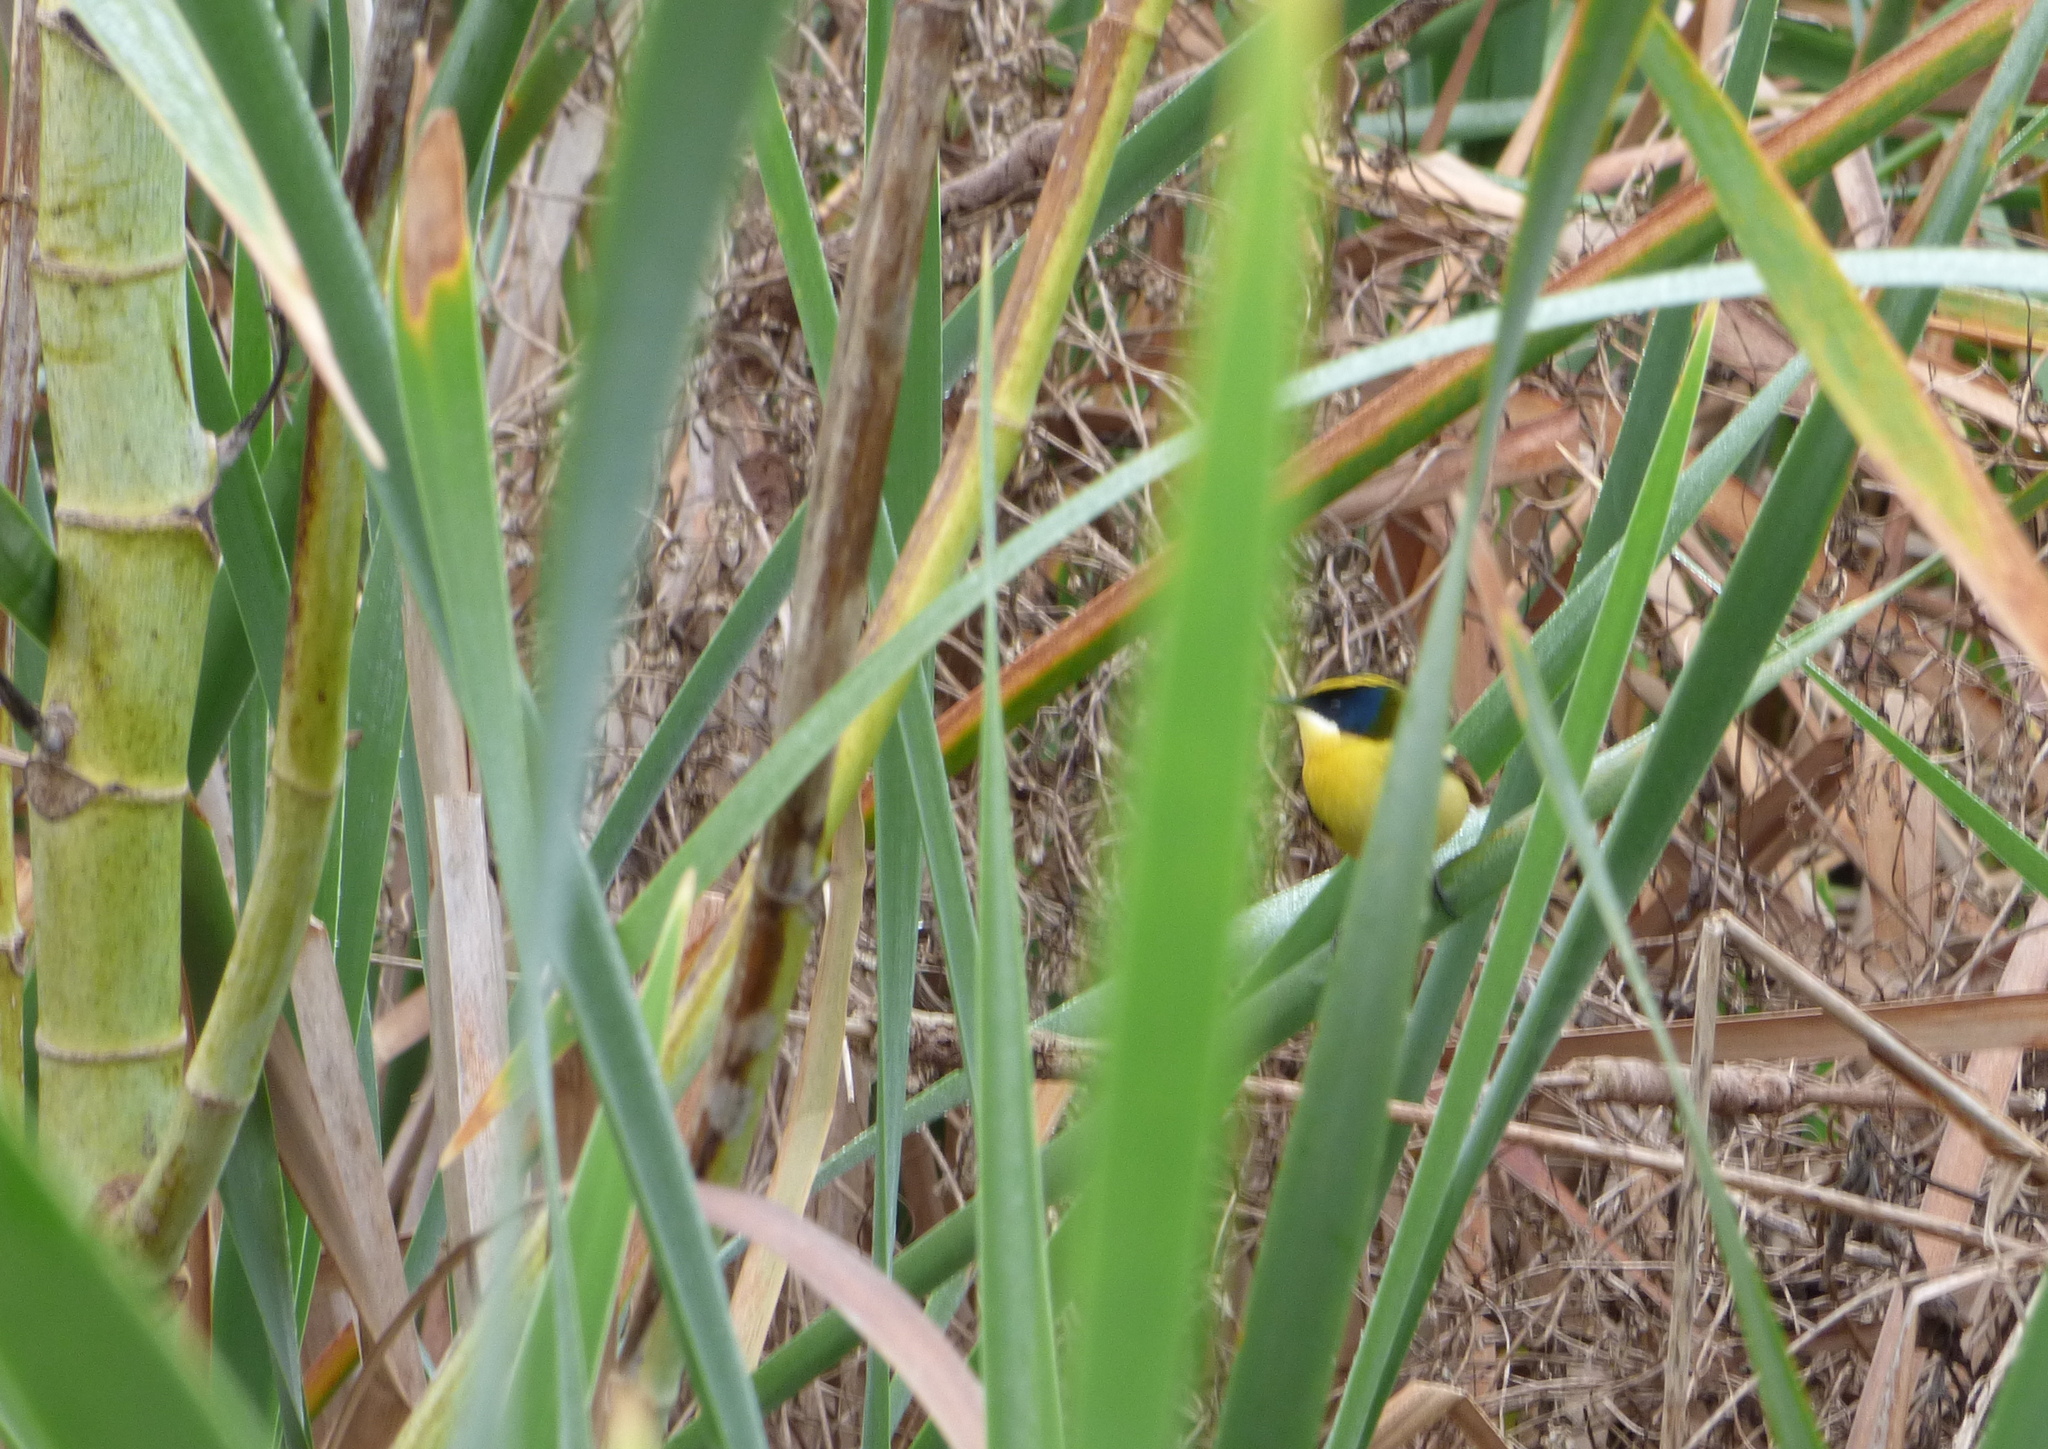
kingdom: Animalia
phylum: Chordata
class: Aves
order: Passeriformes
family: Tyrannidae
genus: Tachuris
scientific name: Tachuris rubrigastra
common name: Many-colored rush tyrant
